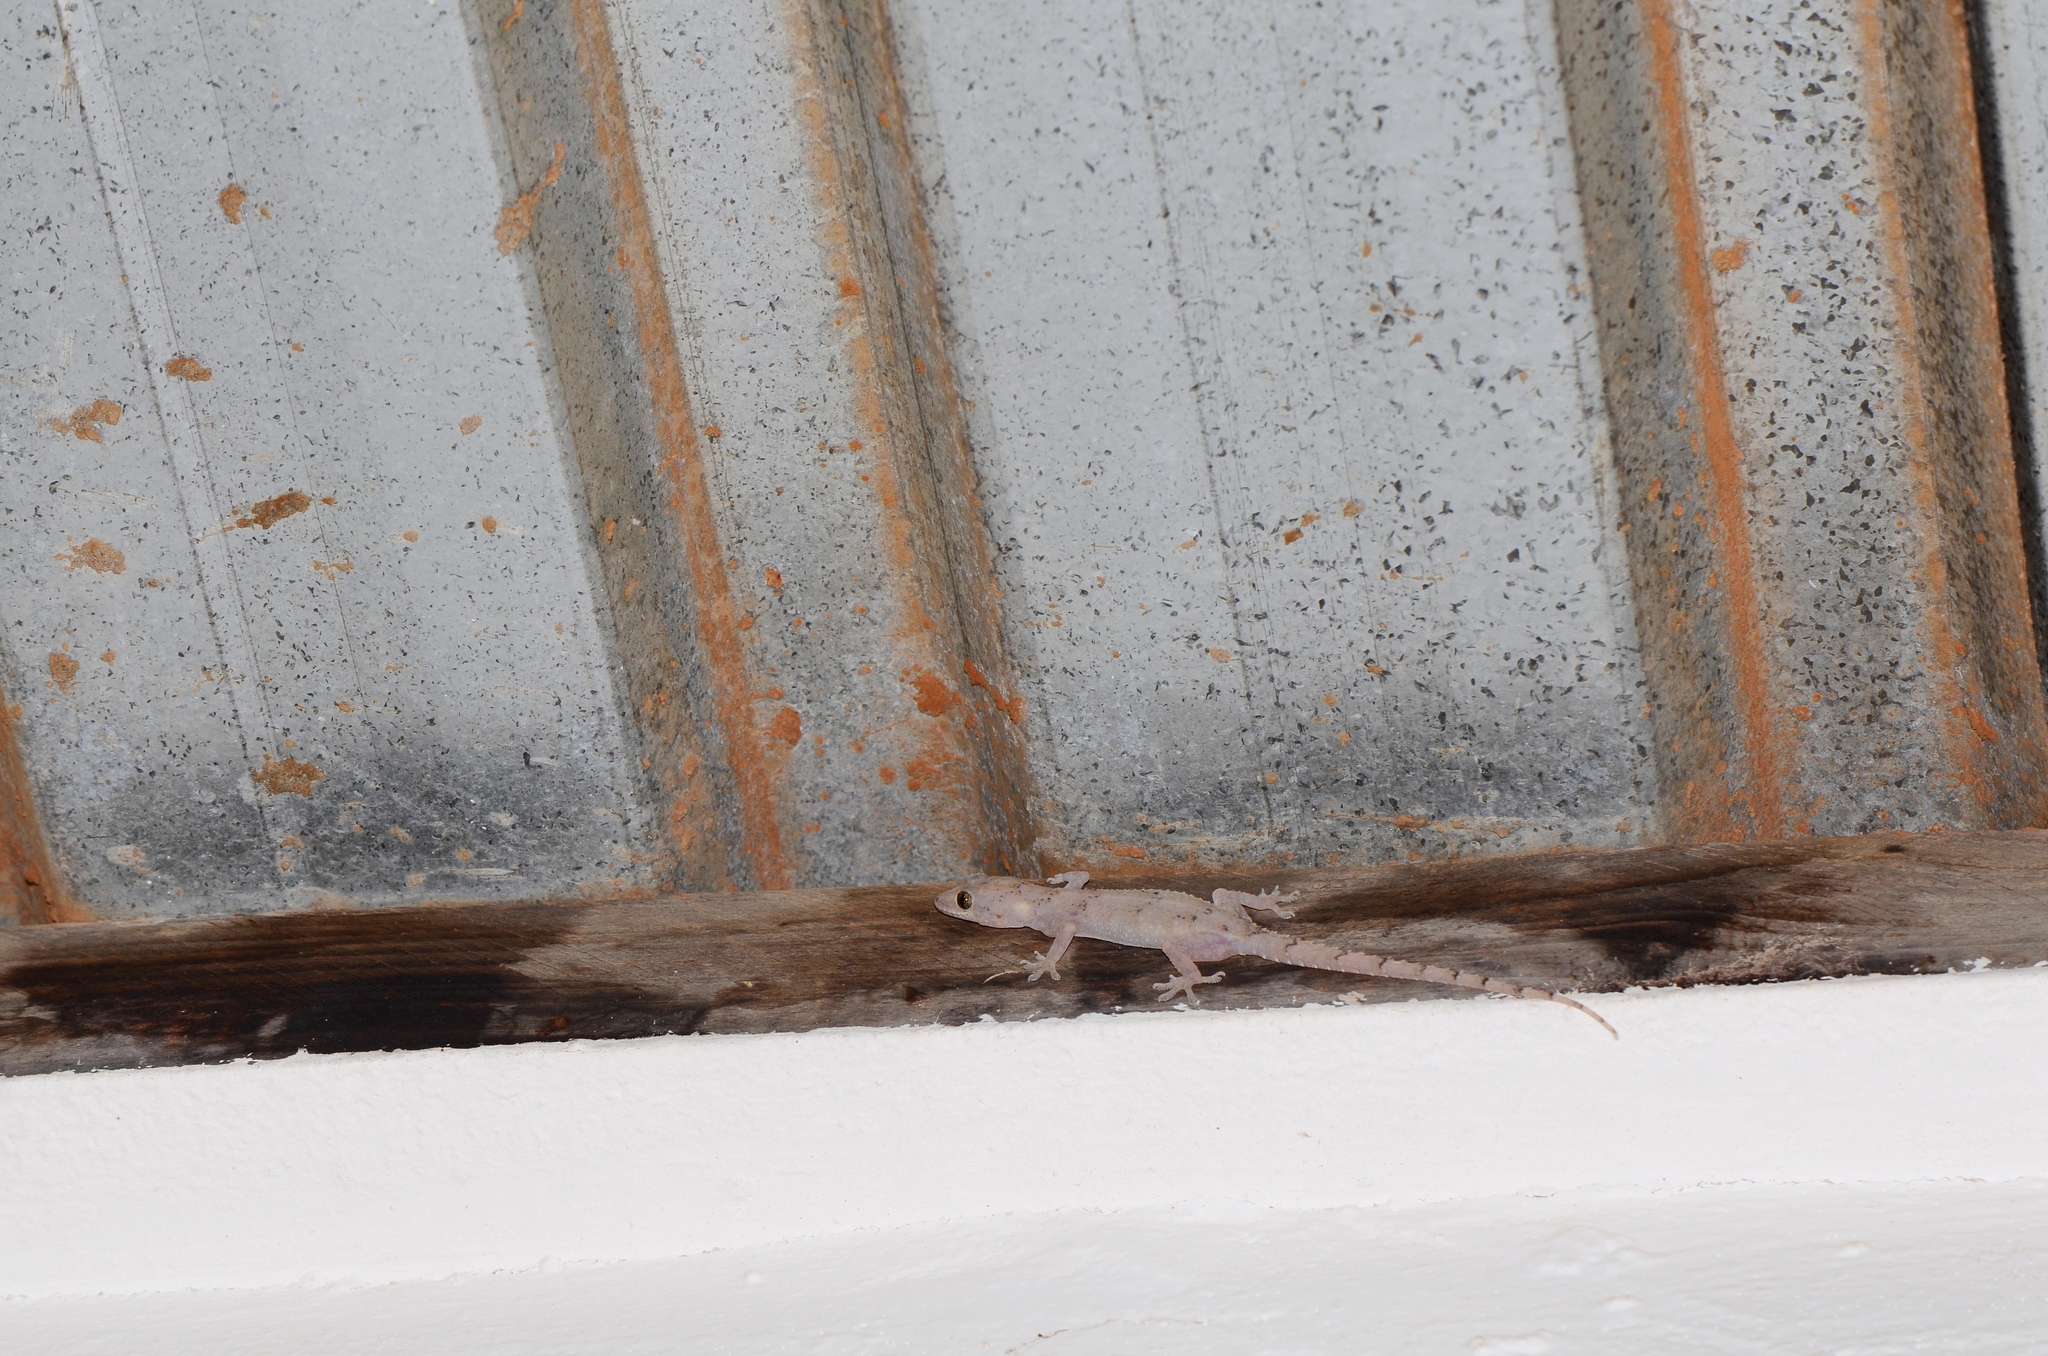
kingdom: Animalia
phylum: Chordata
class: Squamata
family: Gekkonidae
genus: Hemidactylus
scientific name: Hemidactylus mabouia
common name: House gecko
